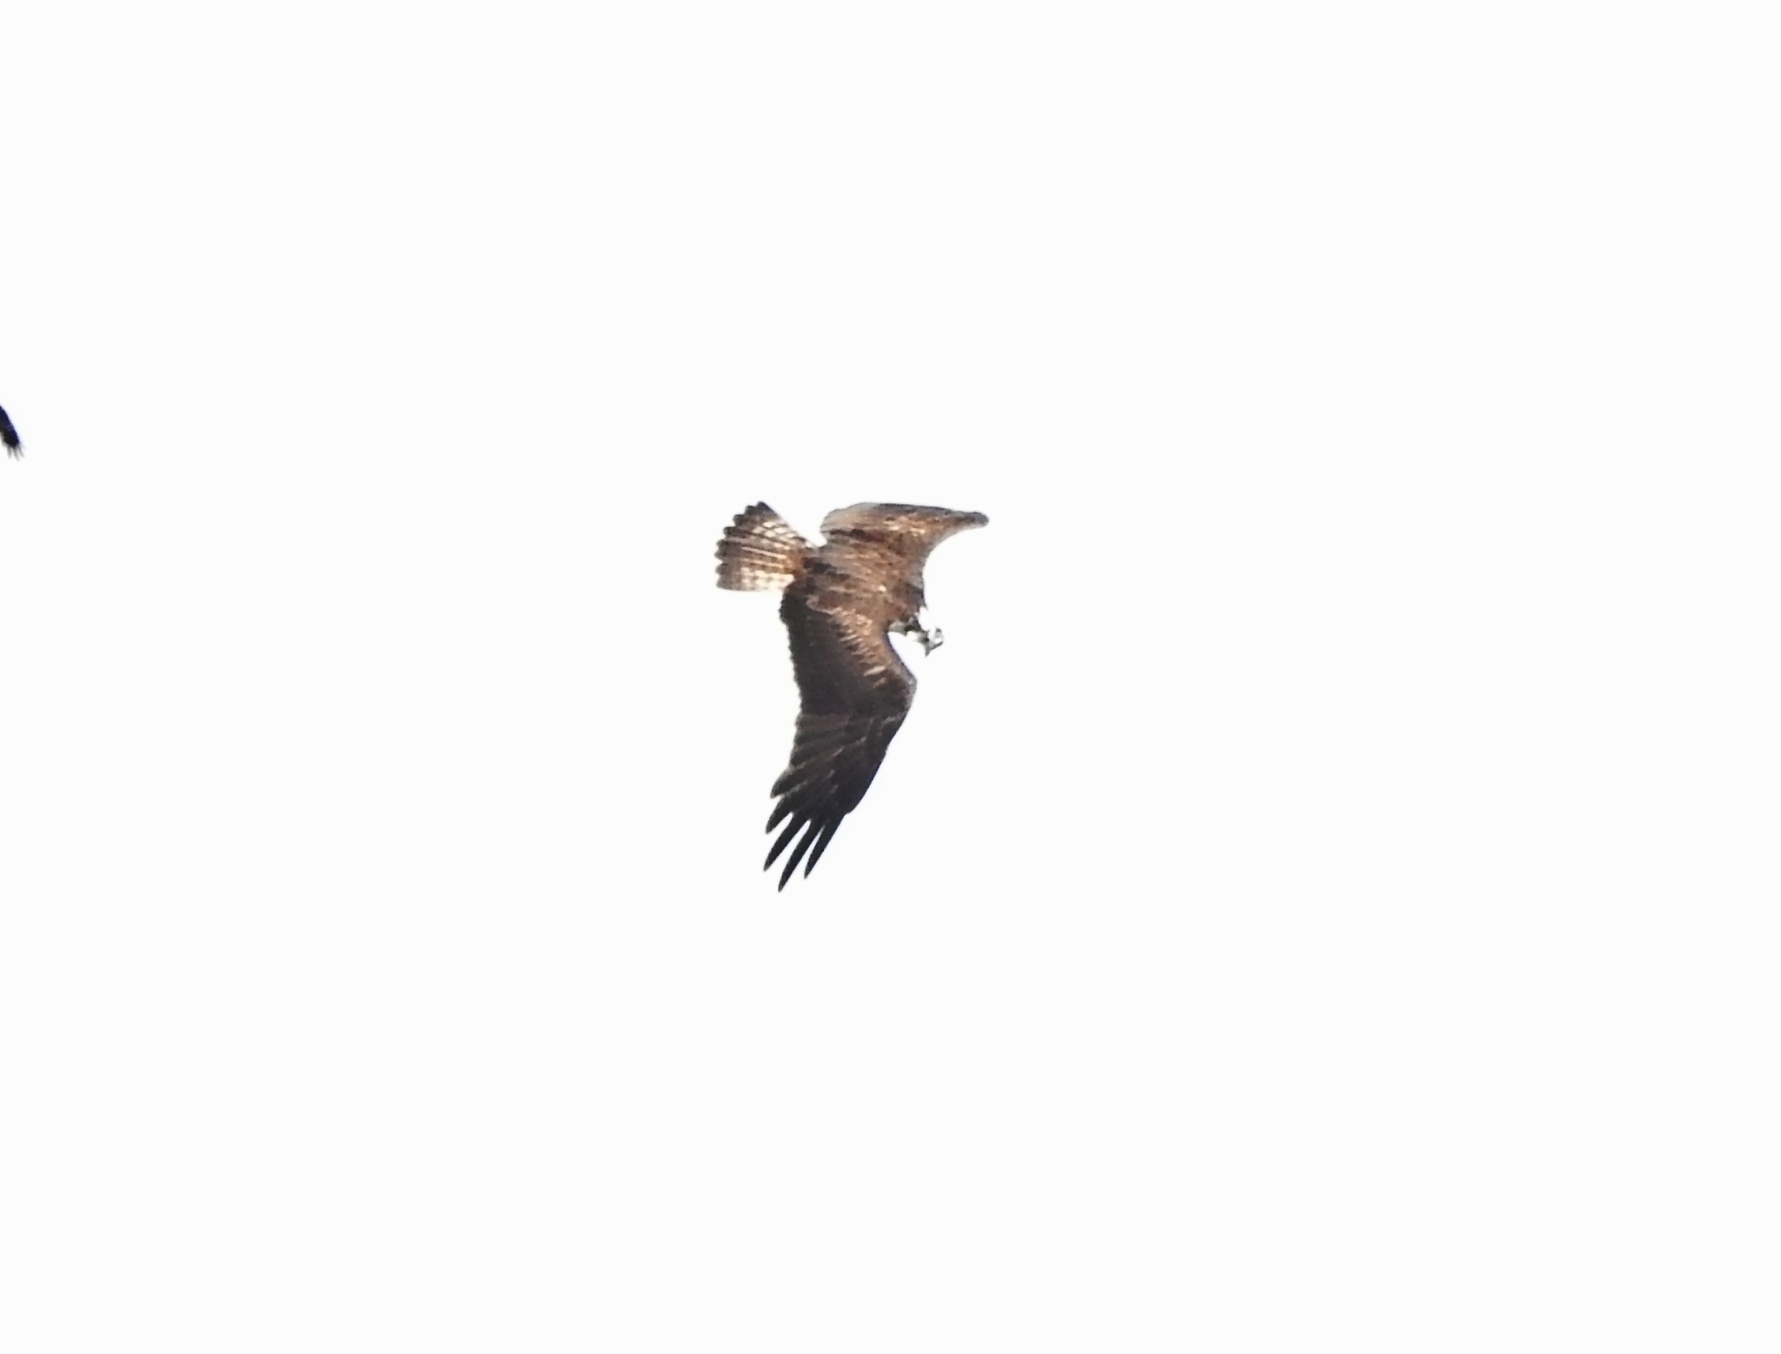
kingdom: Animalia
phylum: Chordata
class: Aves
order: Accipitriformes
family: Pandionidae
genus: Pandion
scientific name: Pandion haliaetus
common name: Osprey
